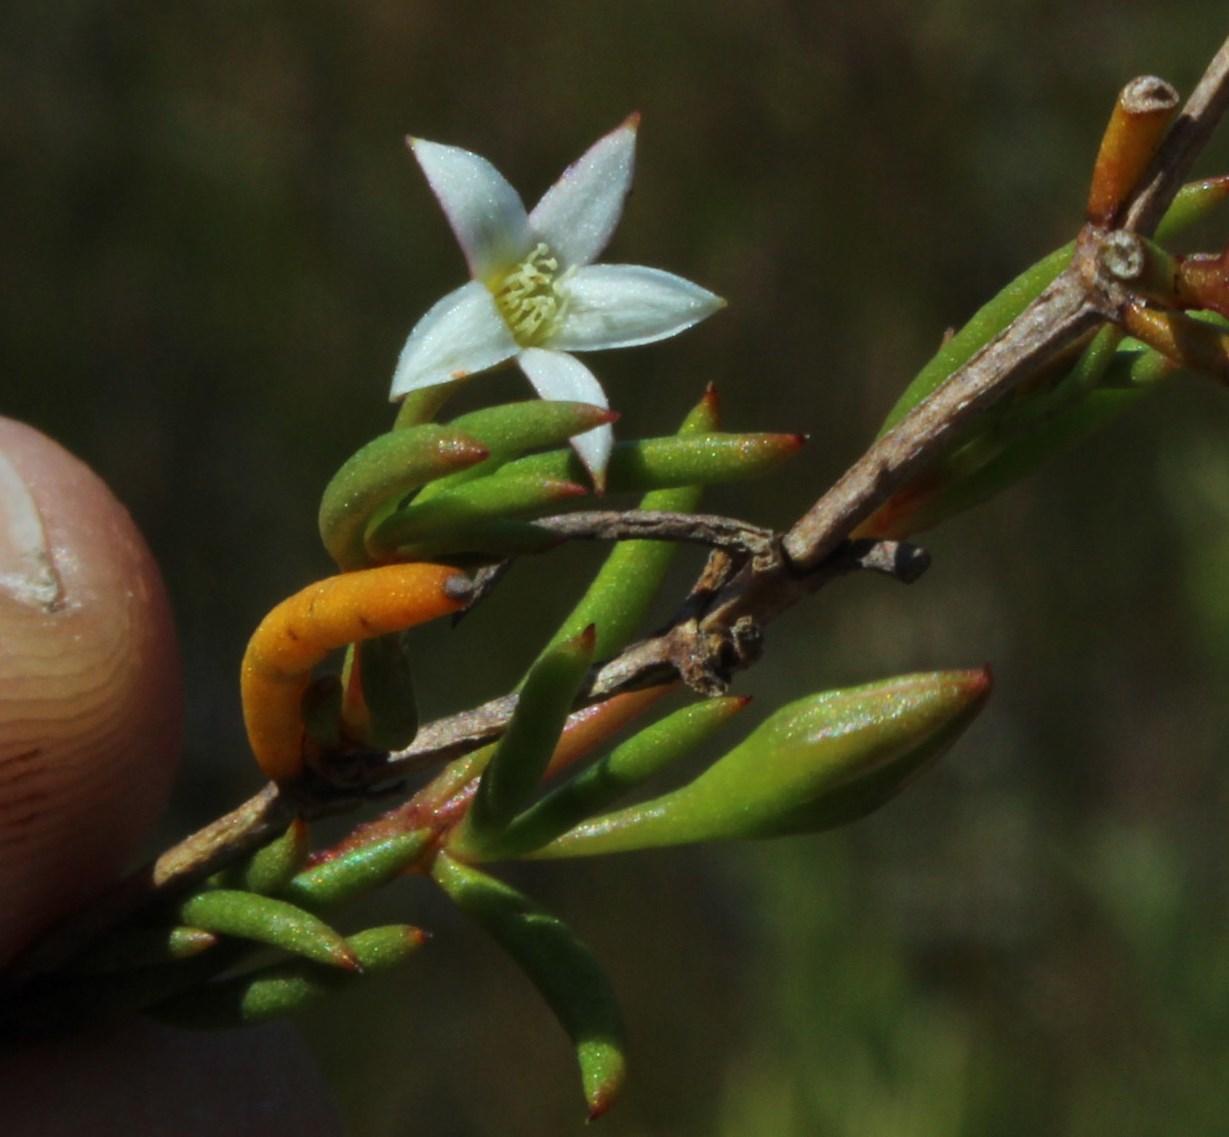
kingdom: Plantae
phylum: Tracheophyta
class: Magnoliopsida
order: Caryophyllales
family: Aizoaceae
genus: Acrosanthes
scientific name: Acrosanthes teretifolia
